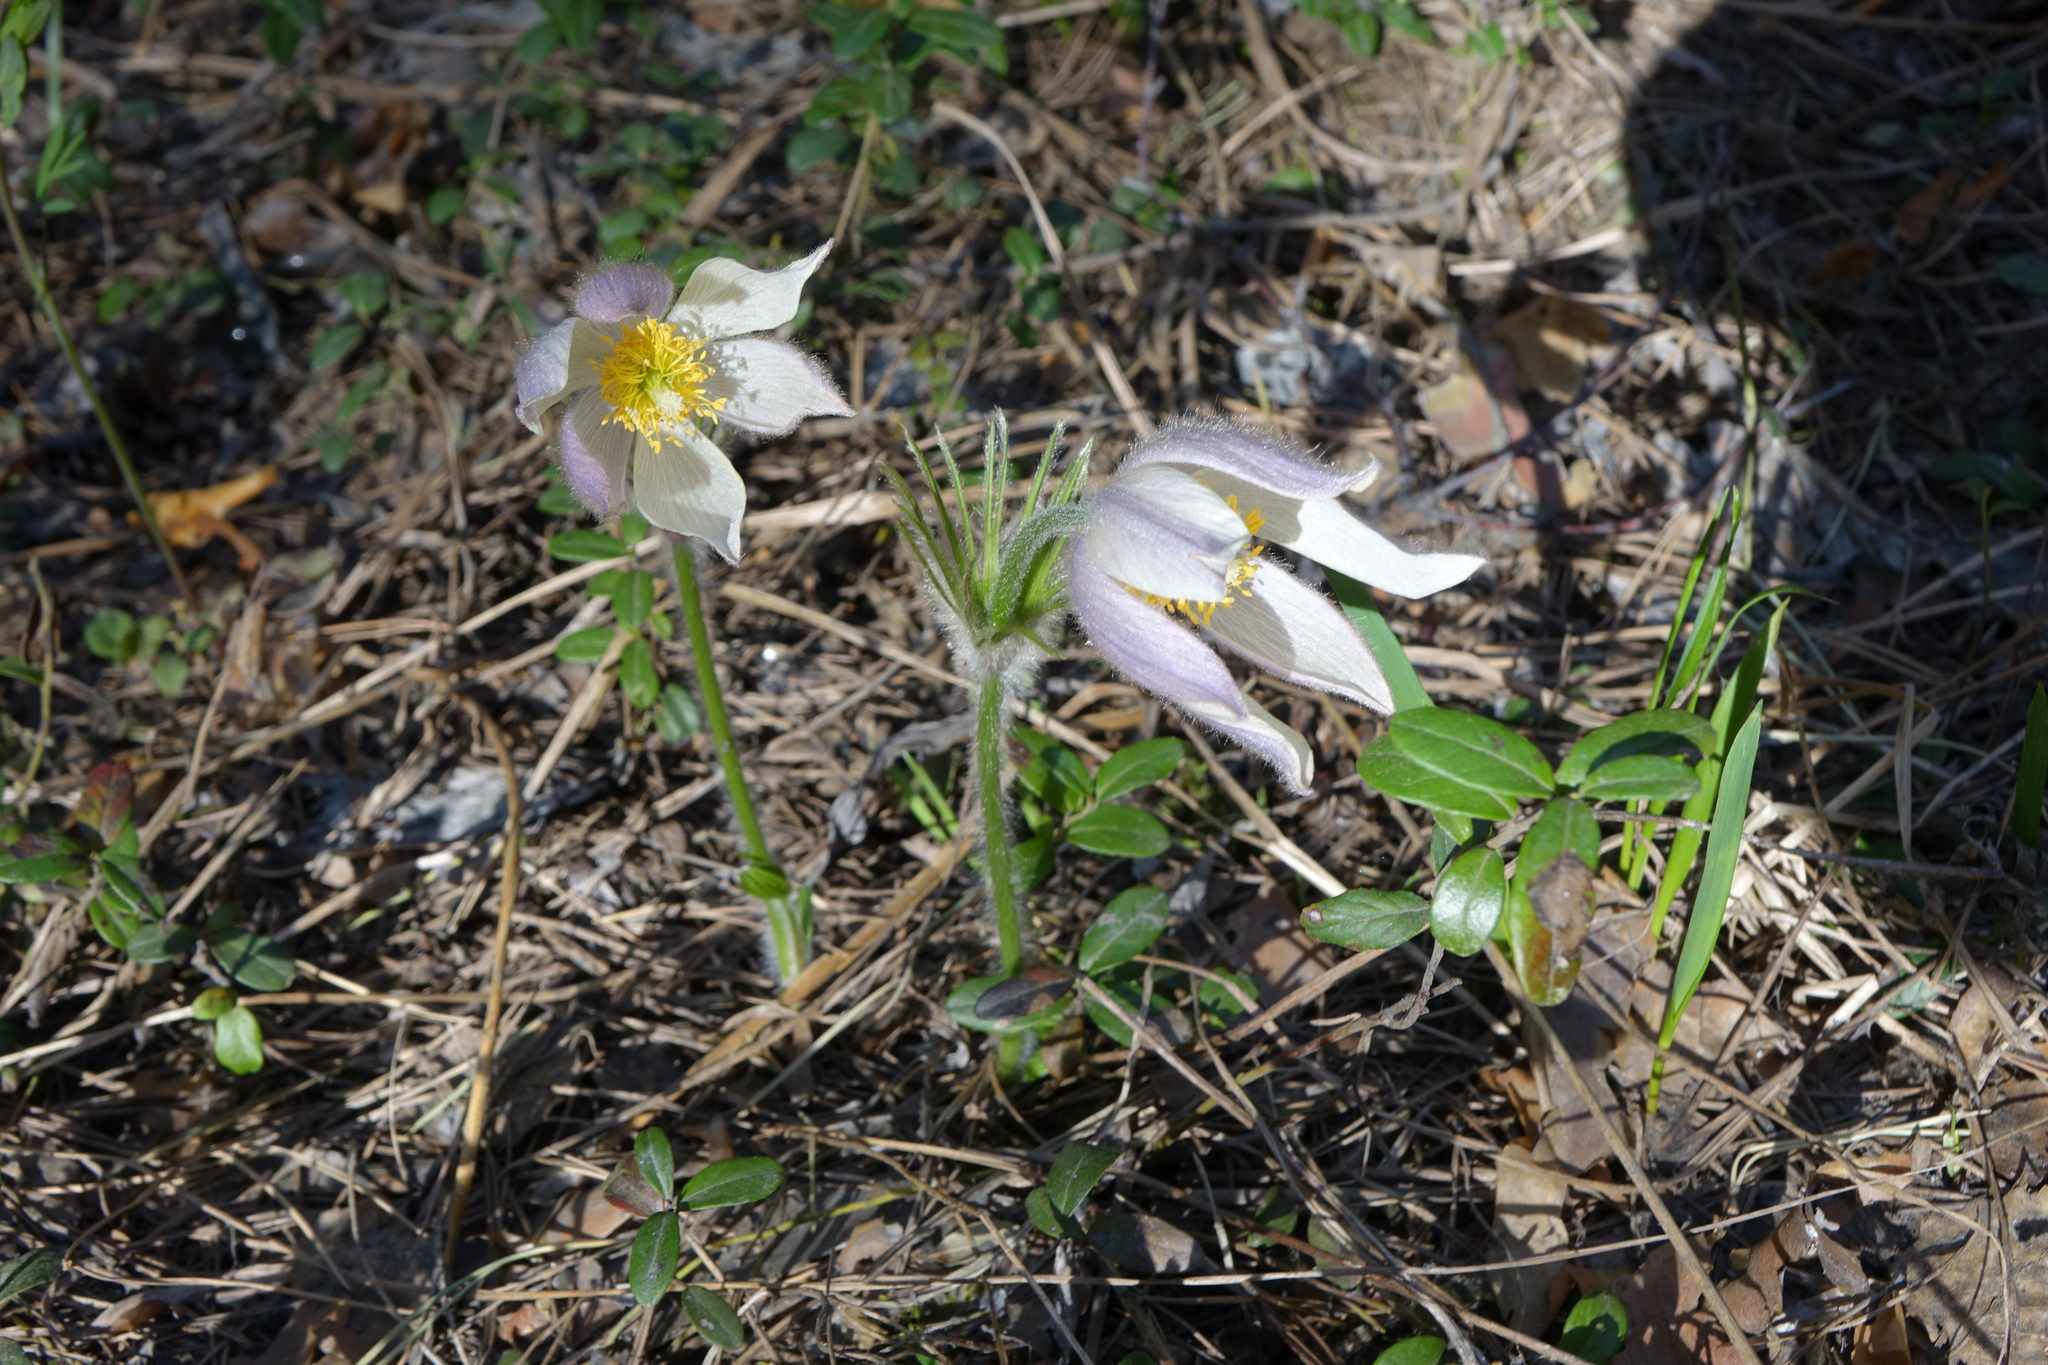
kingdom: Plantae
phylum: Tracheophyta
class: Magnoliopsida
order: Ranunculales
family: Ranunculaceae
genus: Pulsatilla
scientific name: Pulsatilla patens
